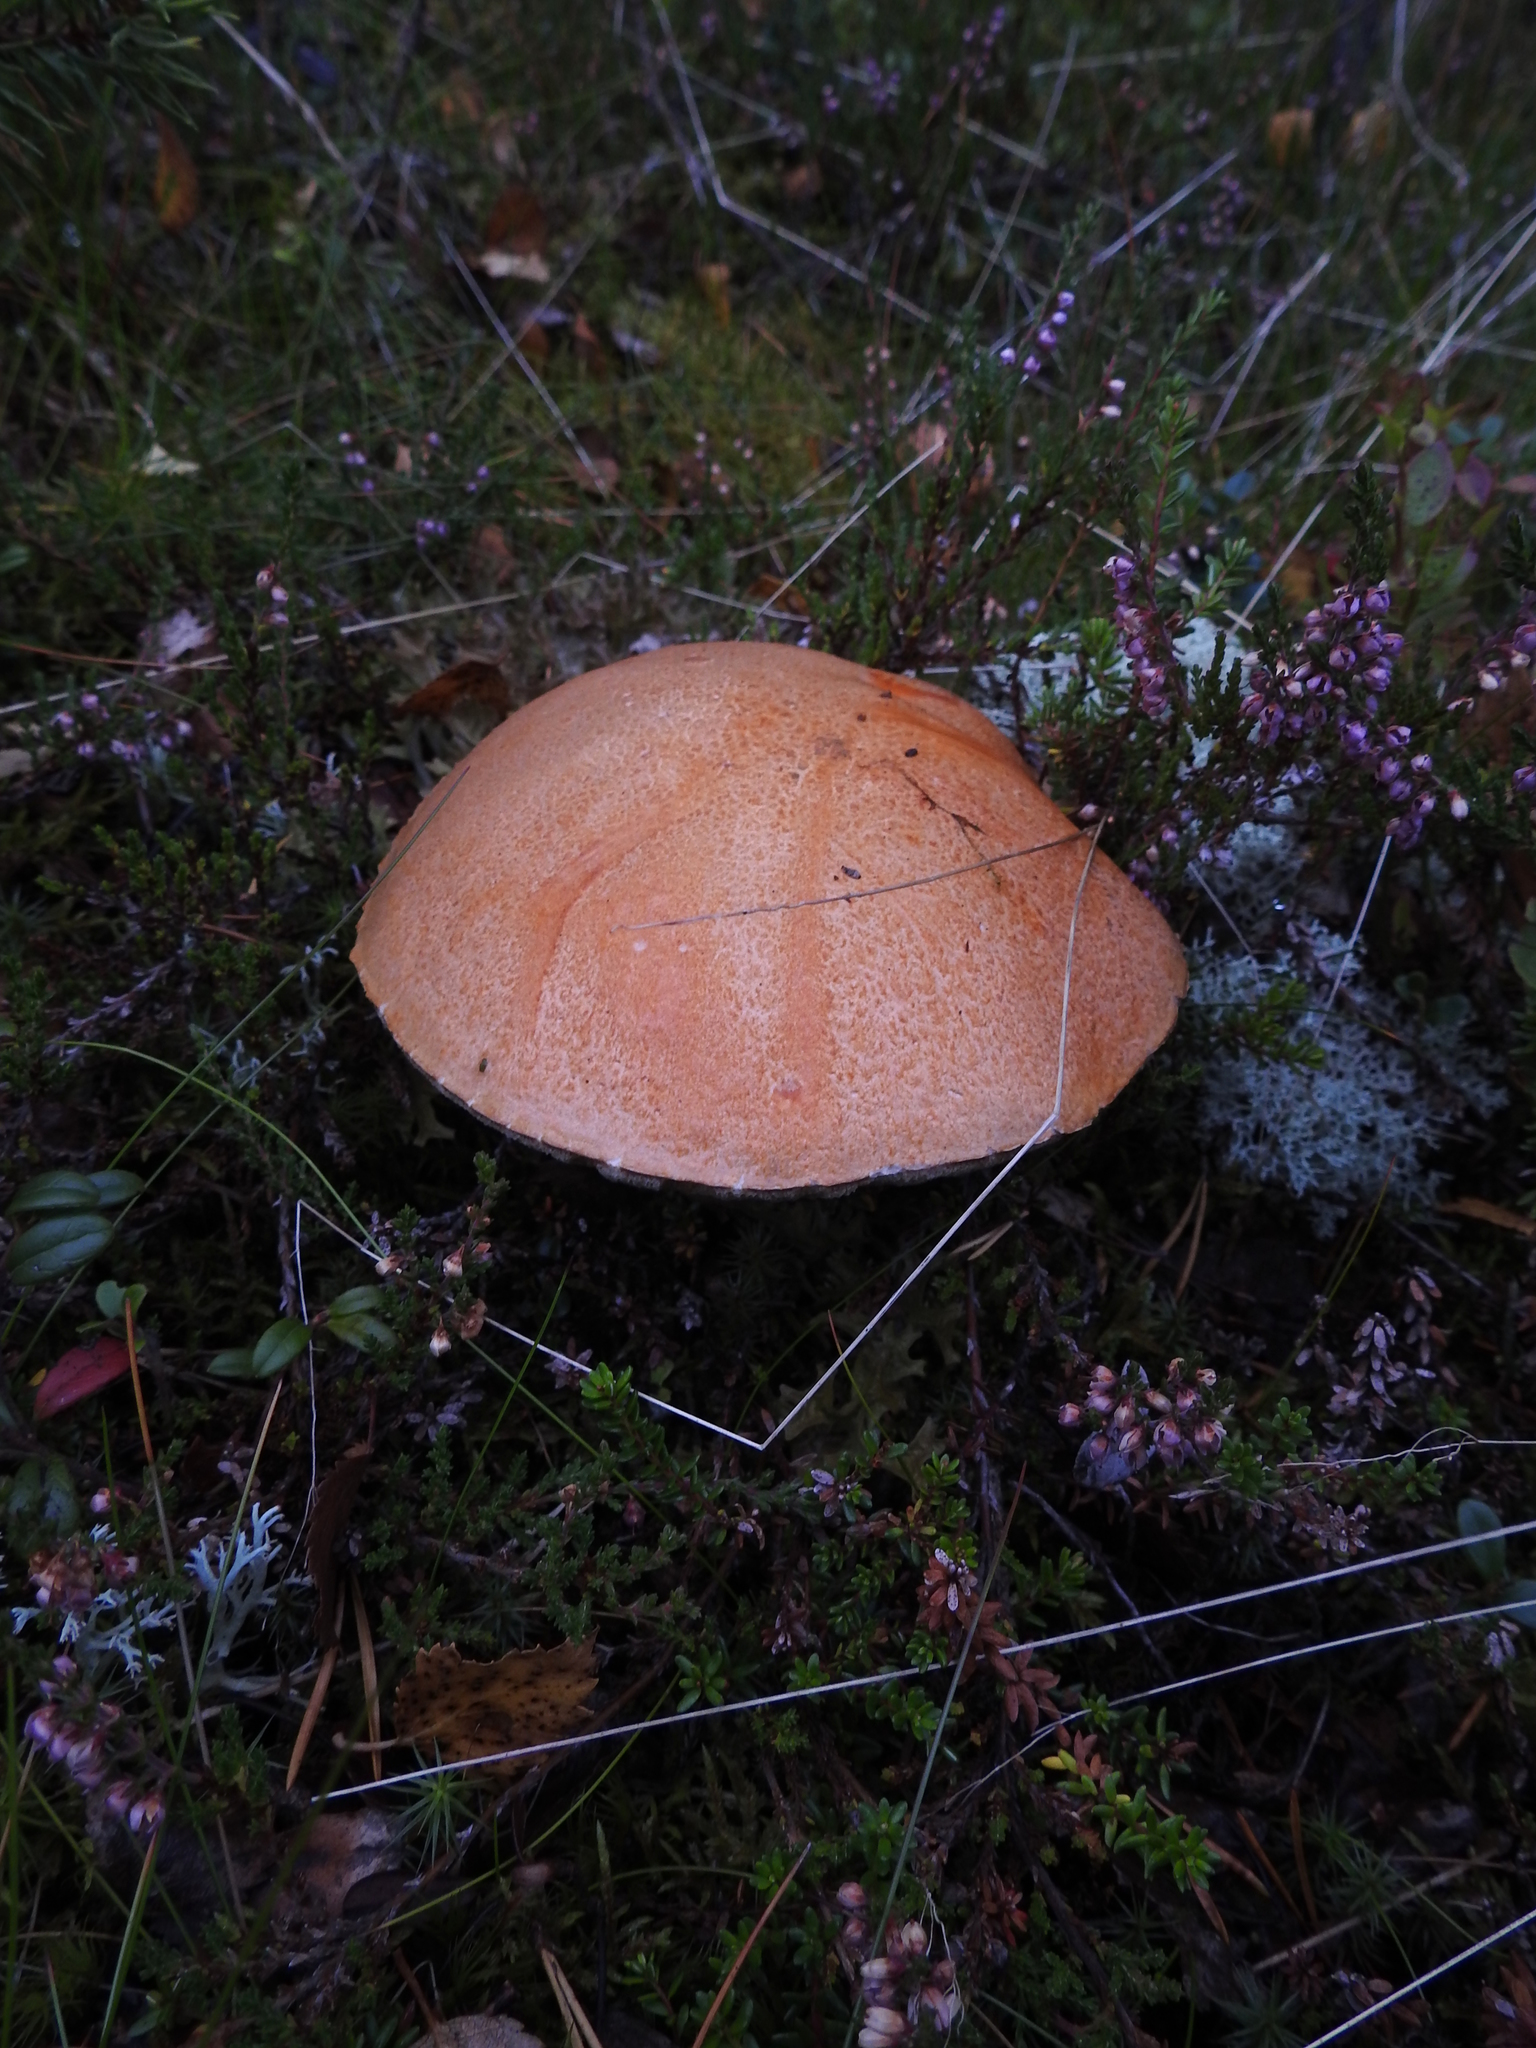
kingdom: Fungi
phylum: Basidiomycota
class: Agaricomycetes
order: Boletales
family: Boletaceae
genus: Leccinum
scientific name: Leccinum versipelle
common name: Orange birch bolete
